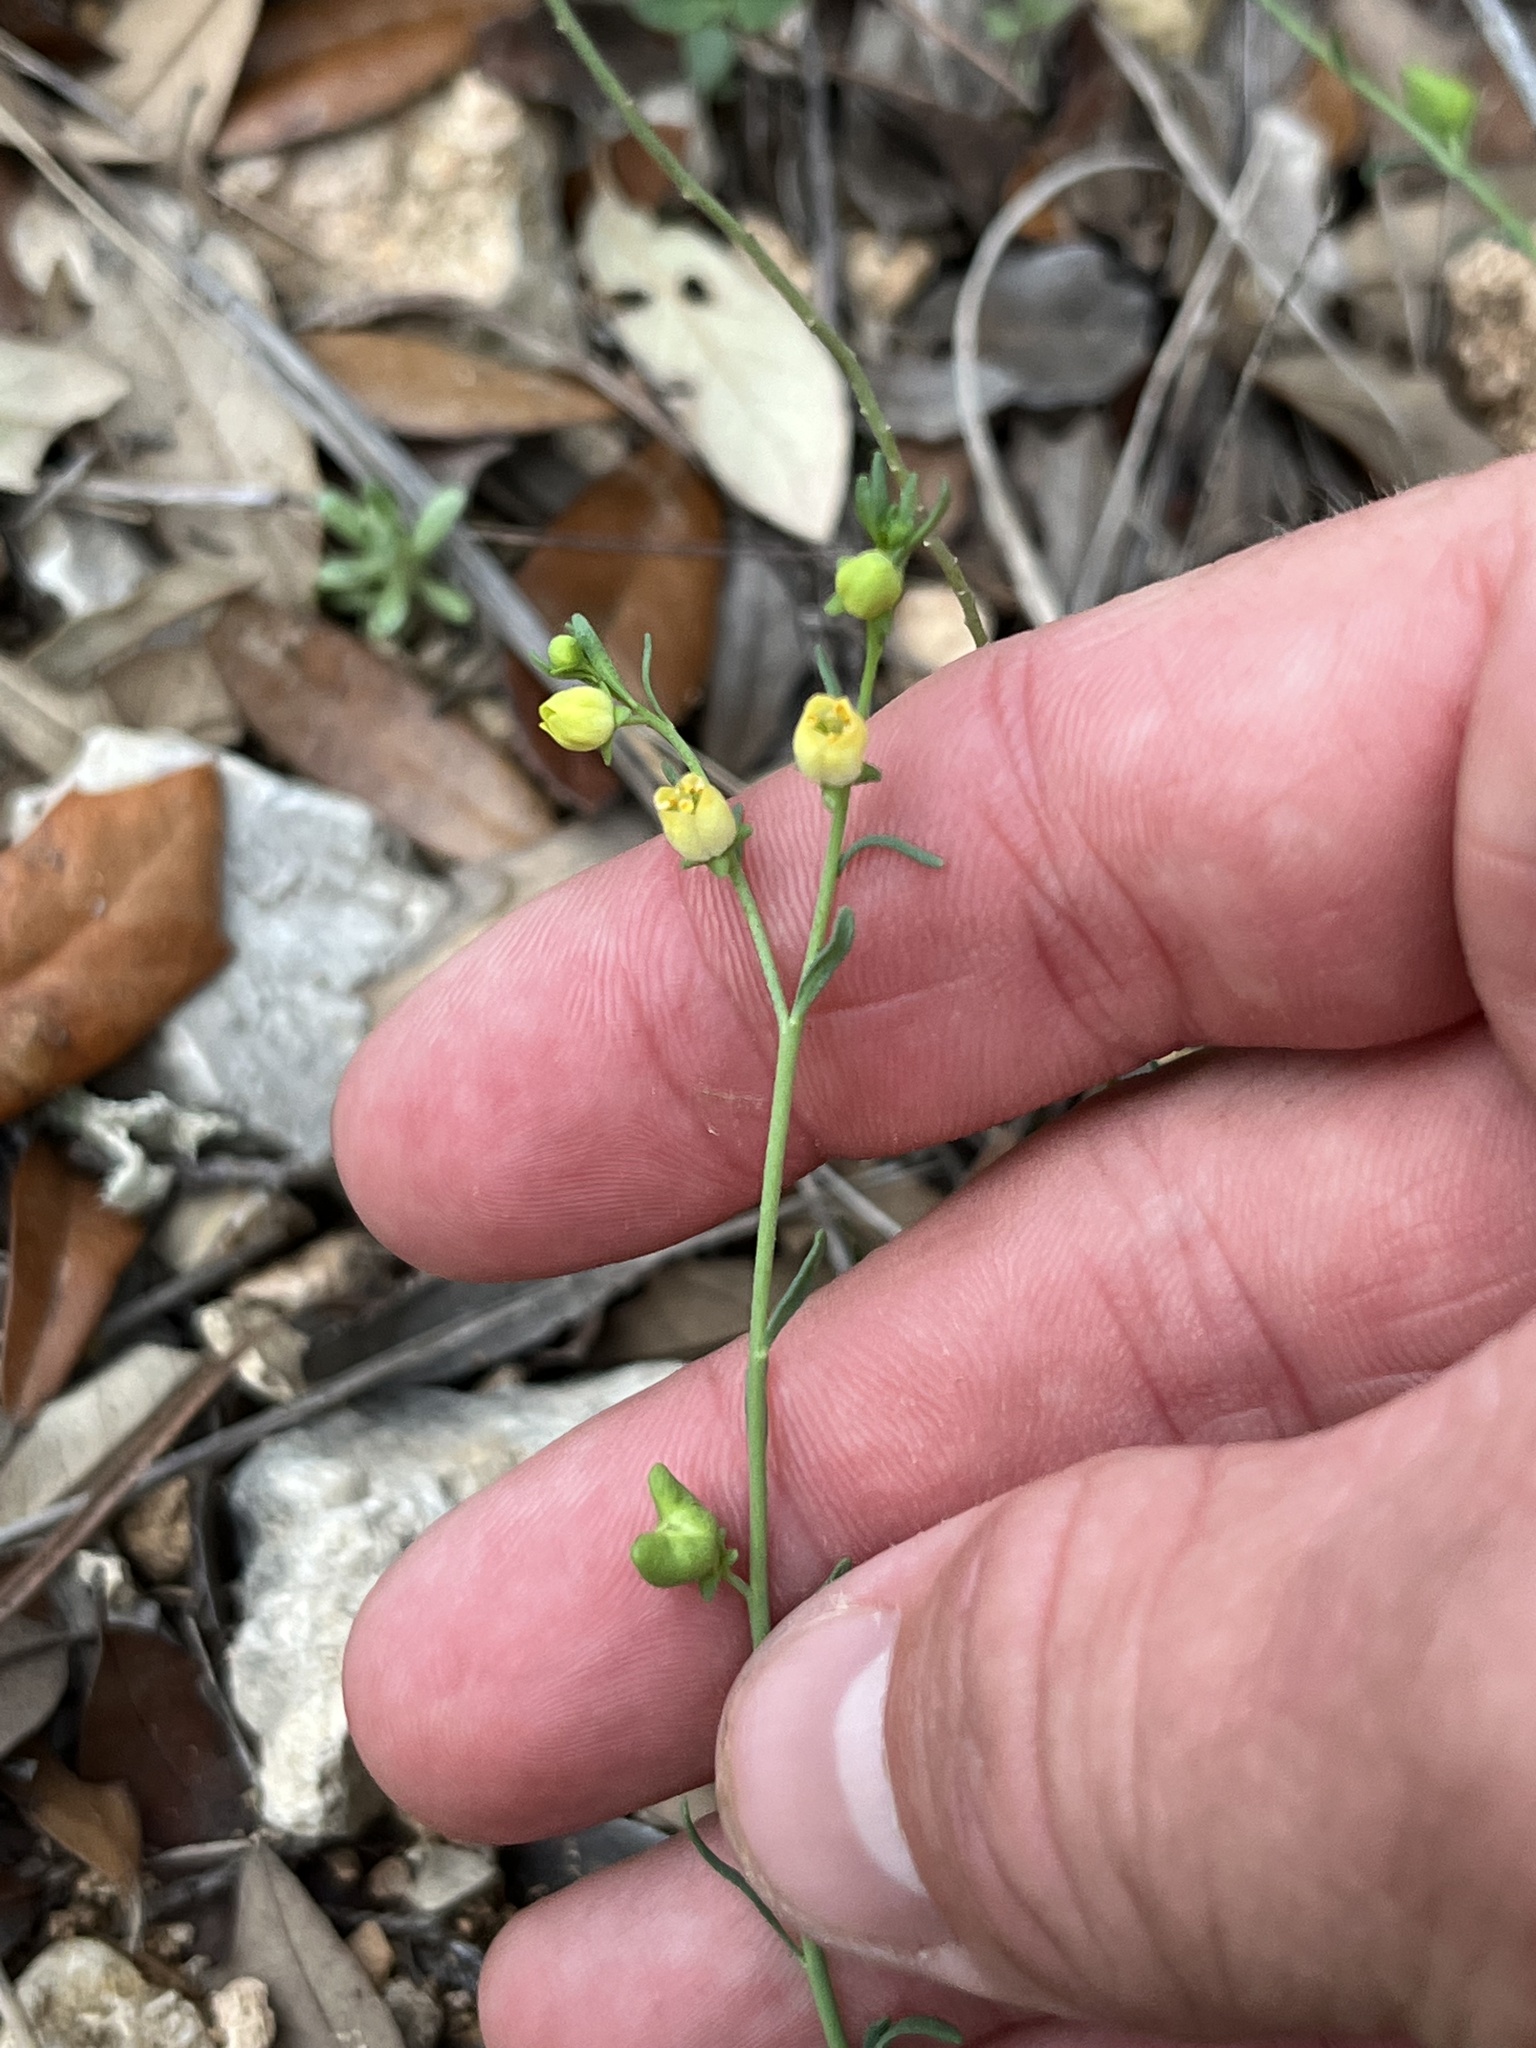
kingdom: Plantae
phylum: Tracheophyta
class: Magnoliopsida
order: Sapindales
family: Rutaceae
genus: Thamnosma
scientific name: Thamnosma texana
